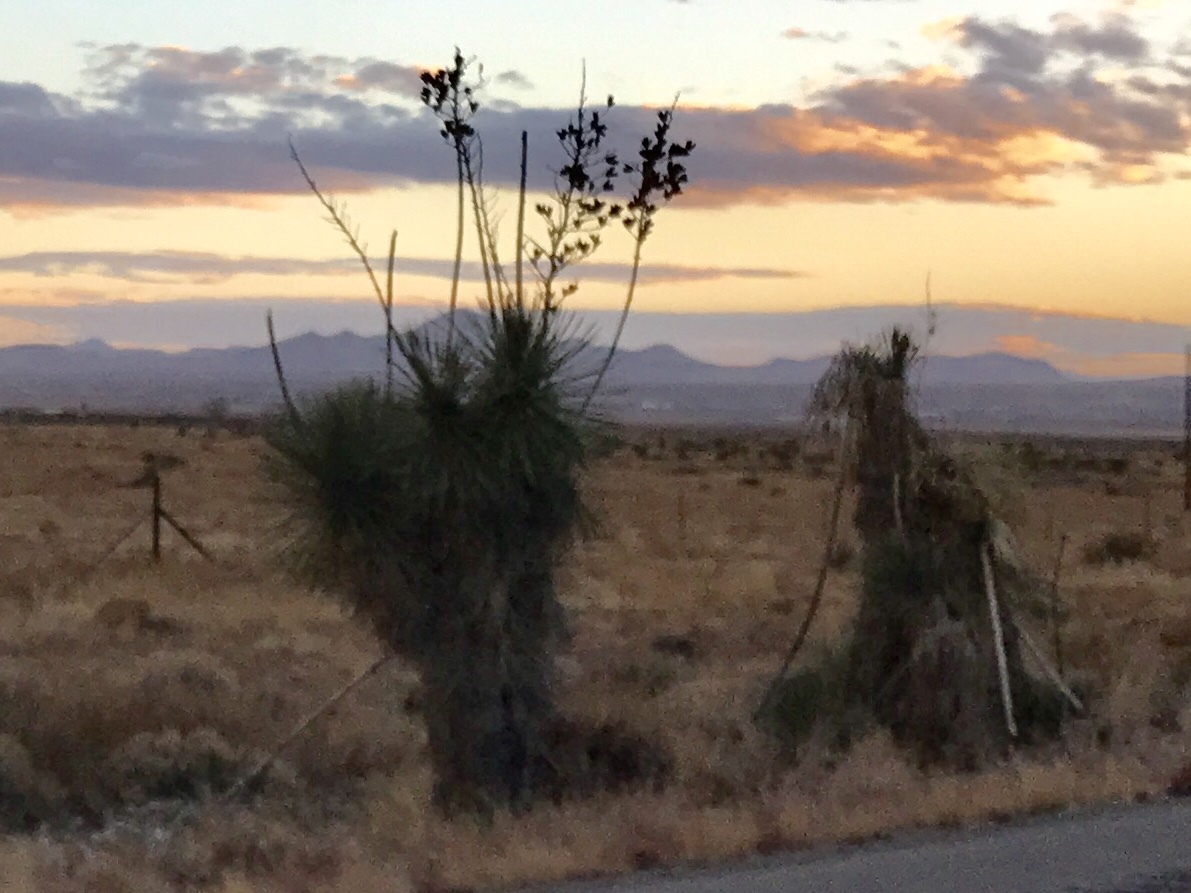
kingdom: Plantae
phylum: Tracheophyta
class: Liliopsida
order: Asparagales
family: Asparagaceae
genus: Yucca
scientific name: Yucca elata
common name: Palmella
